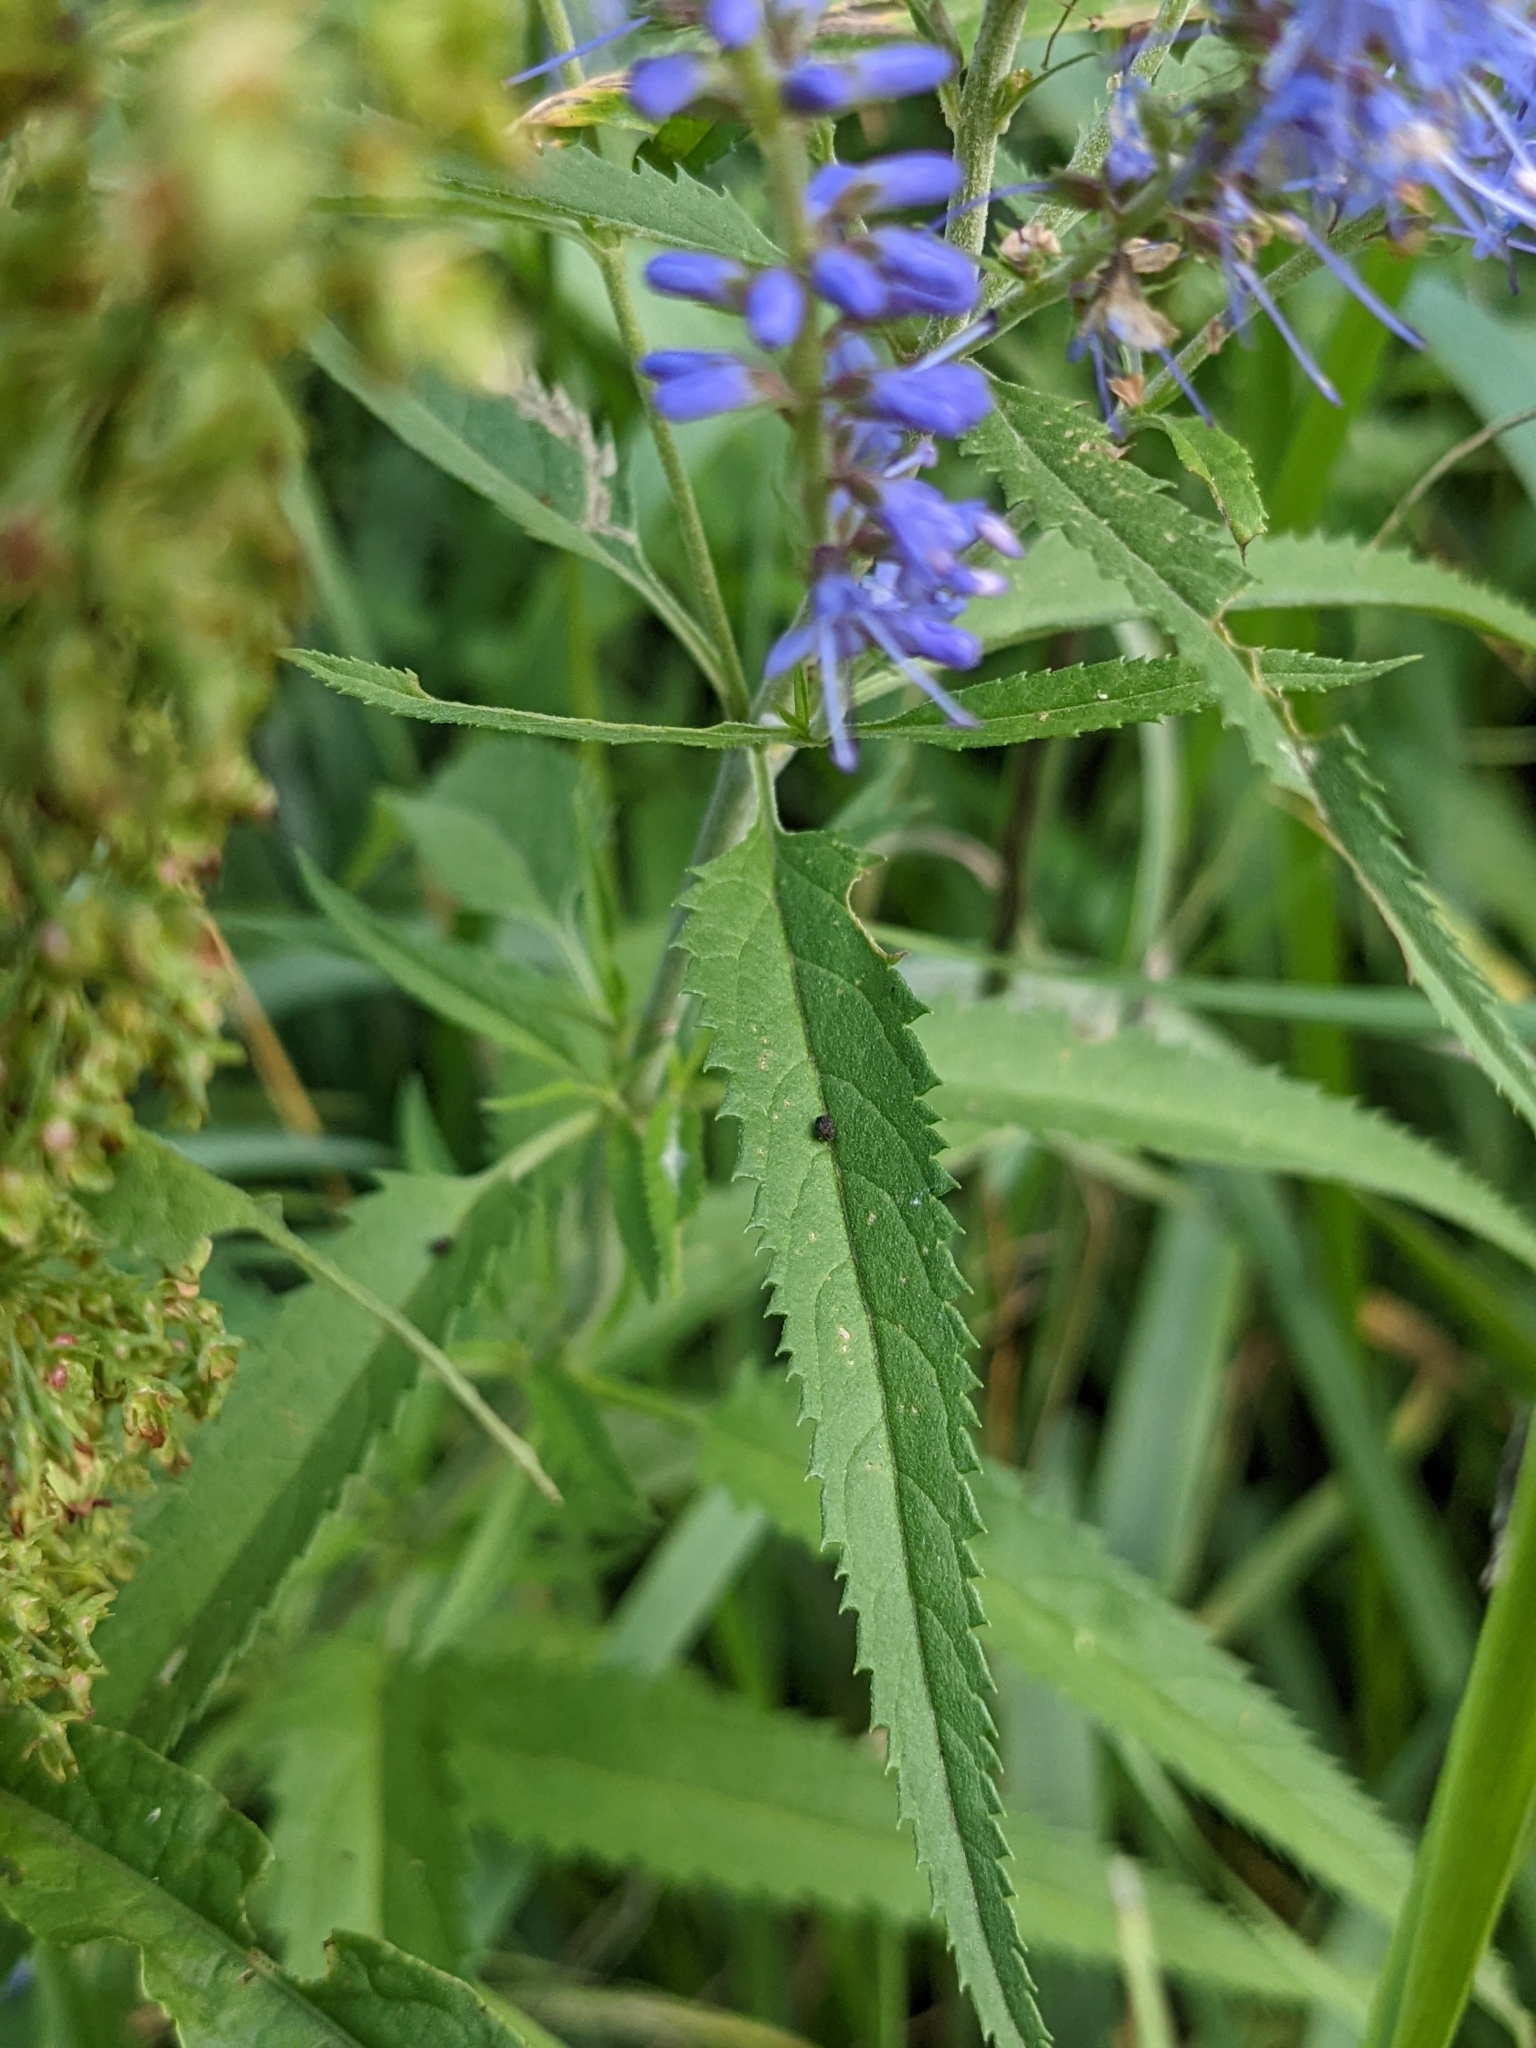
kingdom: Plantae
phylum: Tracheophyta
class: Magnoliopsida
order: Lamiales
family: Plantaginaceae
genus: Veronica
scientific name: Veronica longifolia
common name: Garden speedwell
